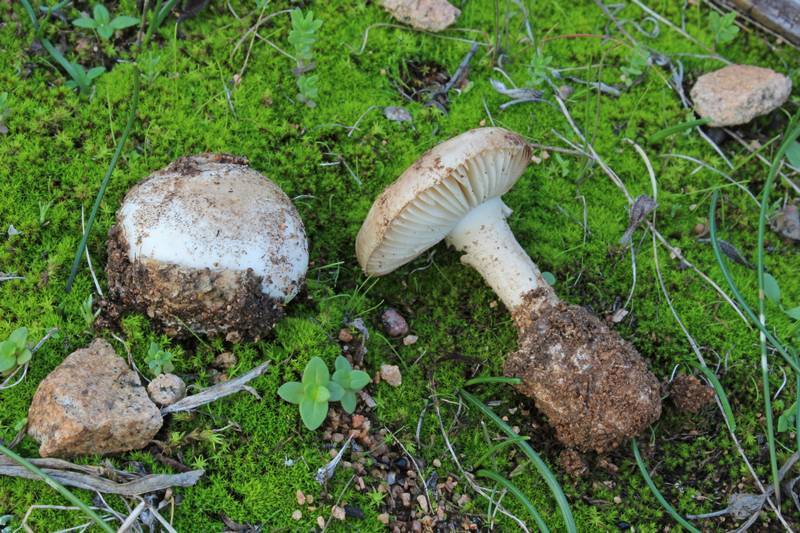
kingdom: Fungi
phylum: Basidiomycota
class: Agaricomycetes
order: Agaricales
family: Amanitaceae
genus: Amanita
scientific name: Amanita curtipes
